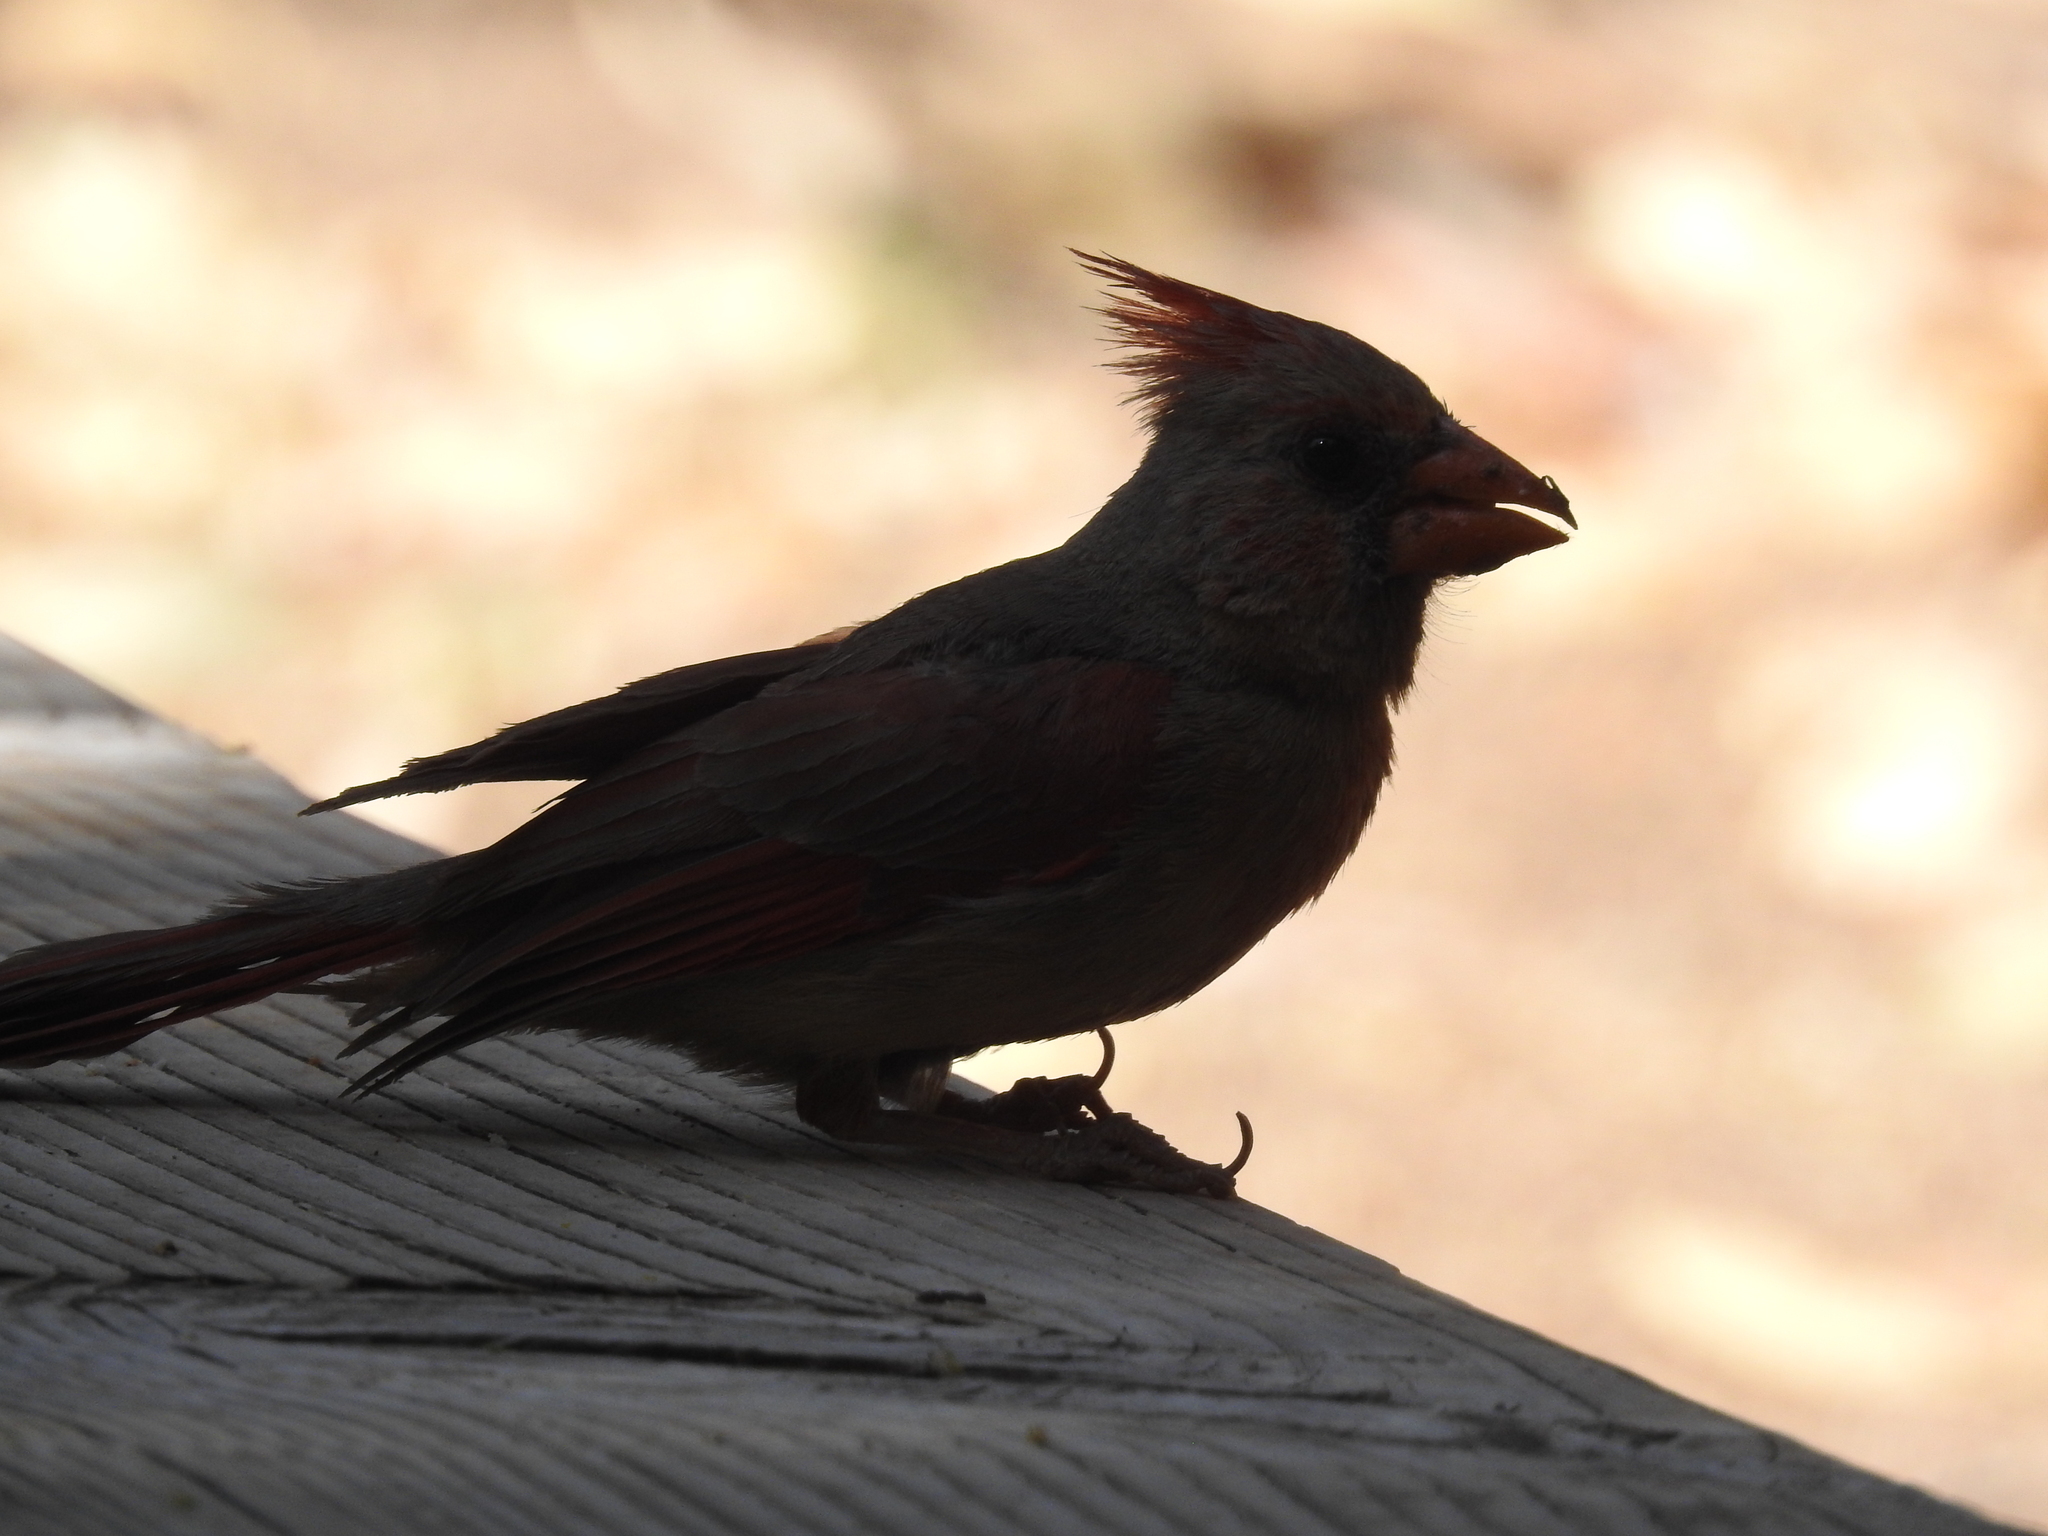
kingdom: Animalia
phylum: Chordata
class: Aves
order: Passeriformes
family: Cardinalidae
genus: Cardinalis
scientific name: Cardinalis cardinalis
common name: Northern cardinal
